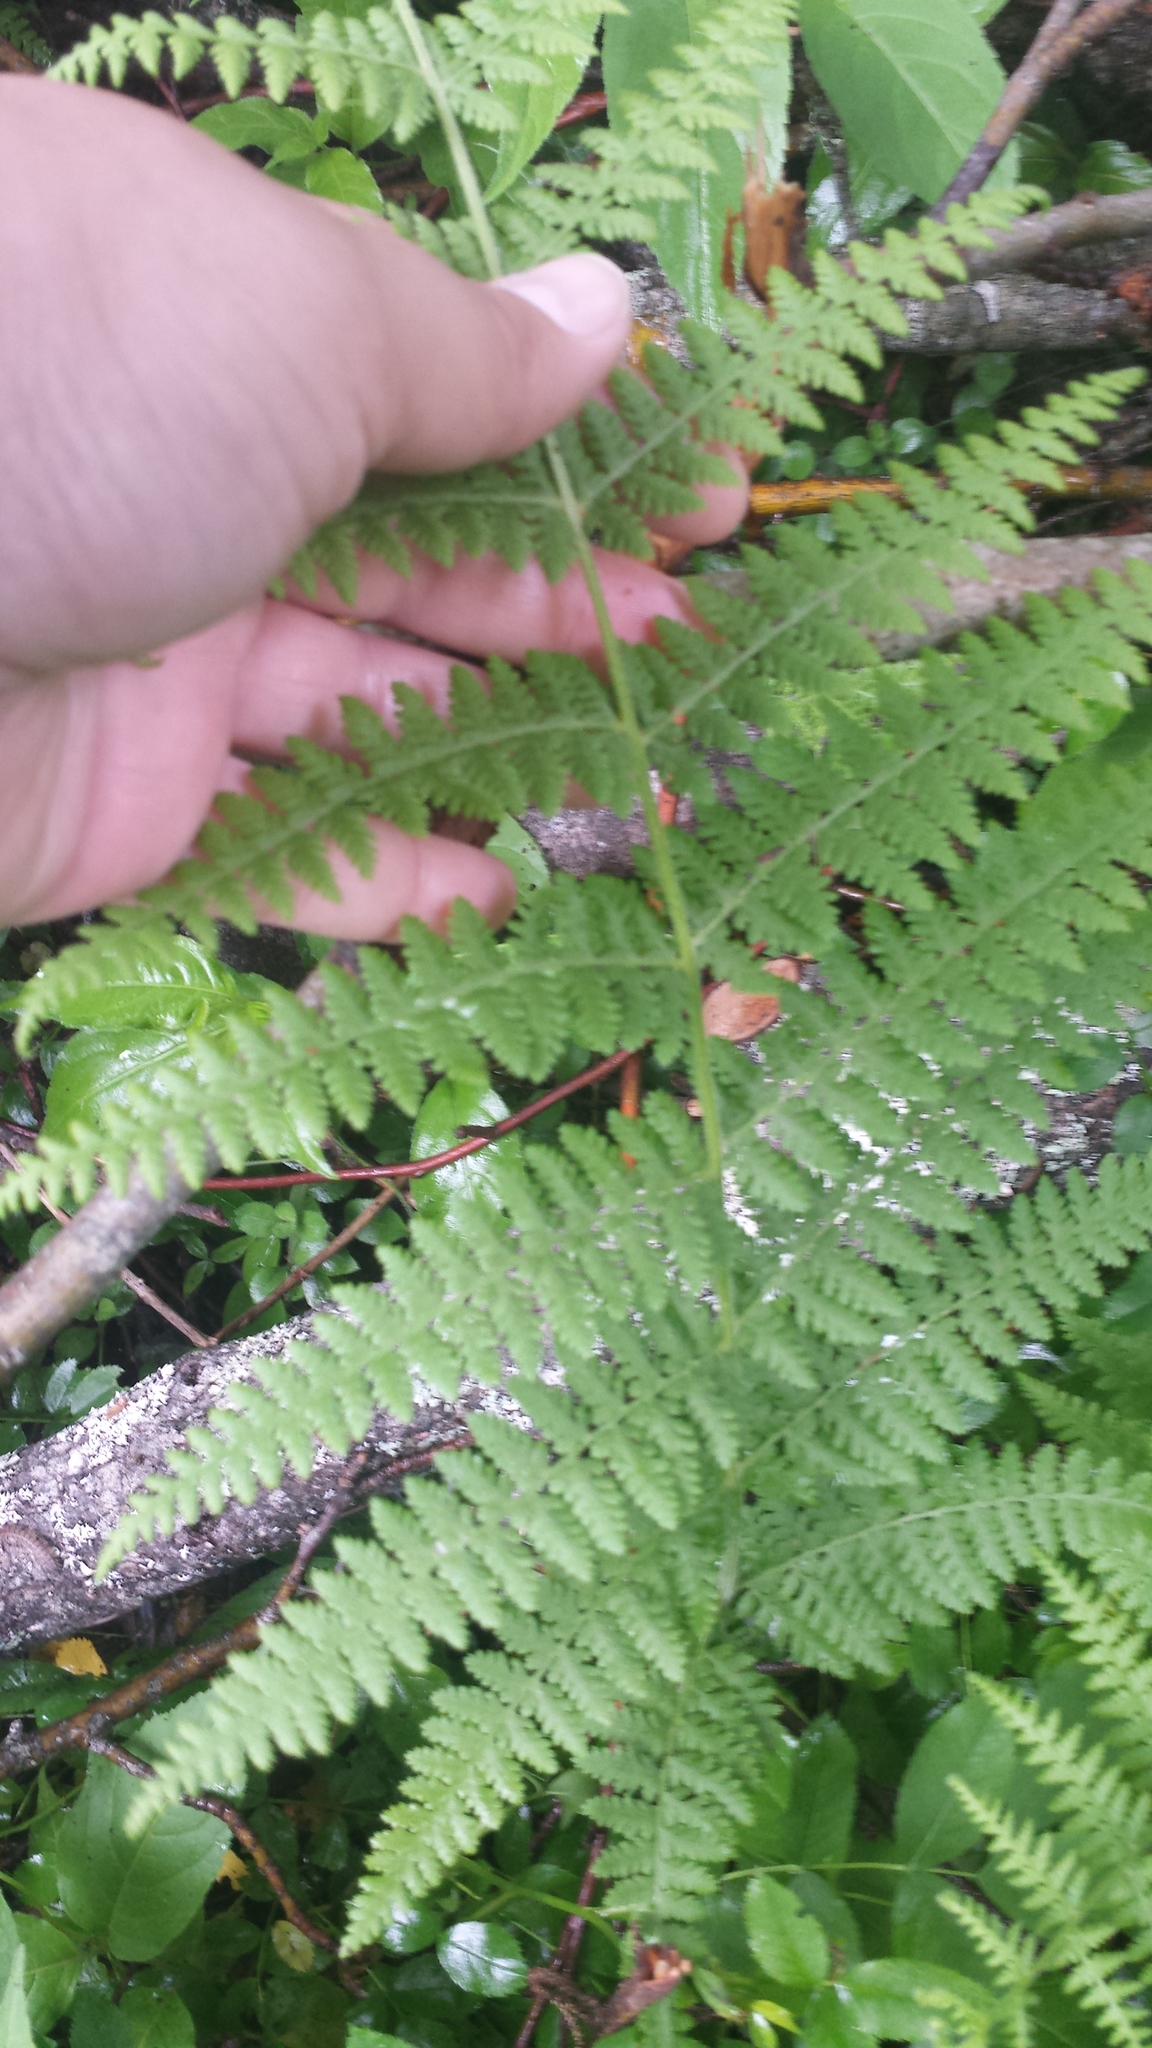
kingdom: Plantae
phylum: Tracheophyta
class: Polypodiopsida
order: Polypodiales
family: Athyriaceae
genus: Athyrium
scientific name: Athyrium angustum
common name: Northern lady fern
